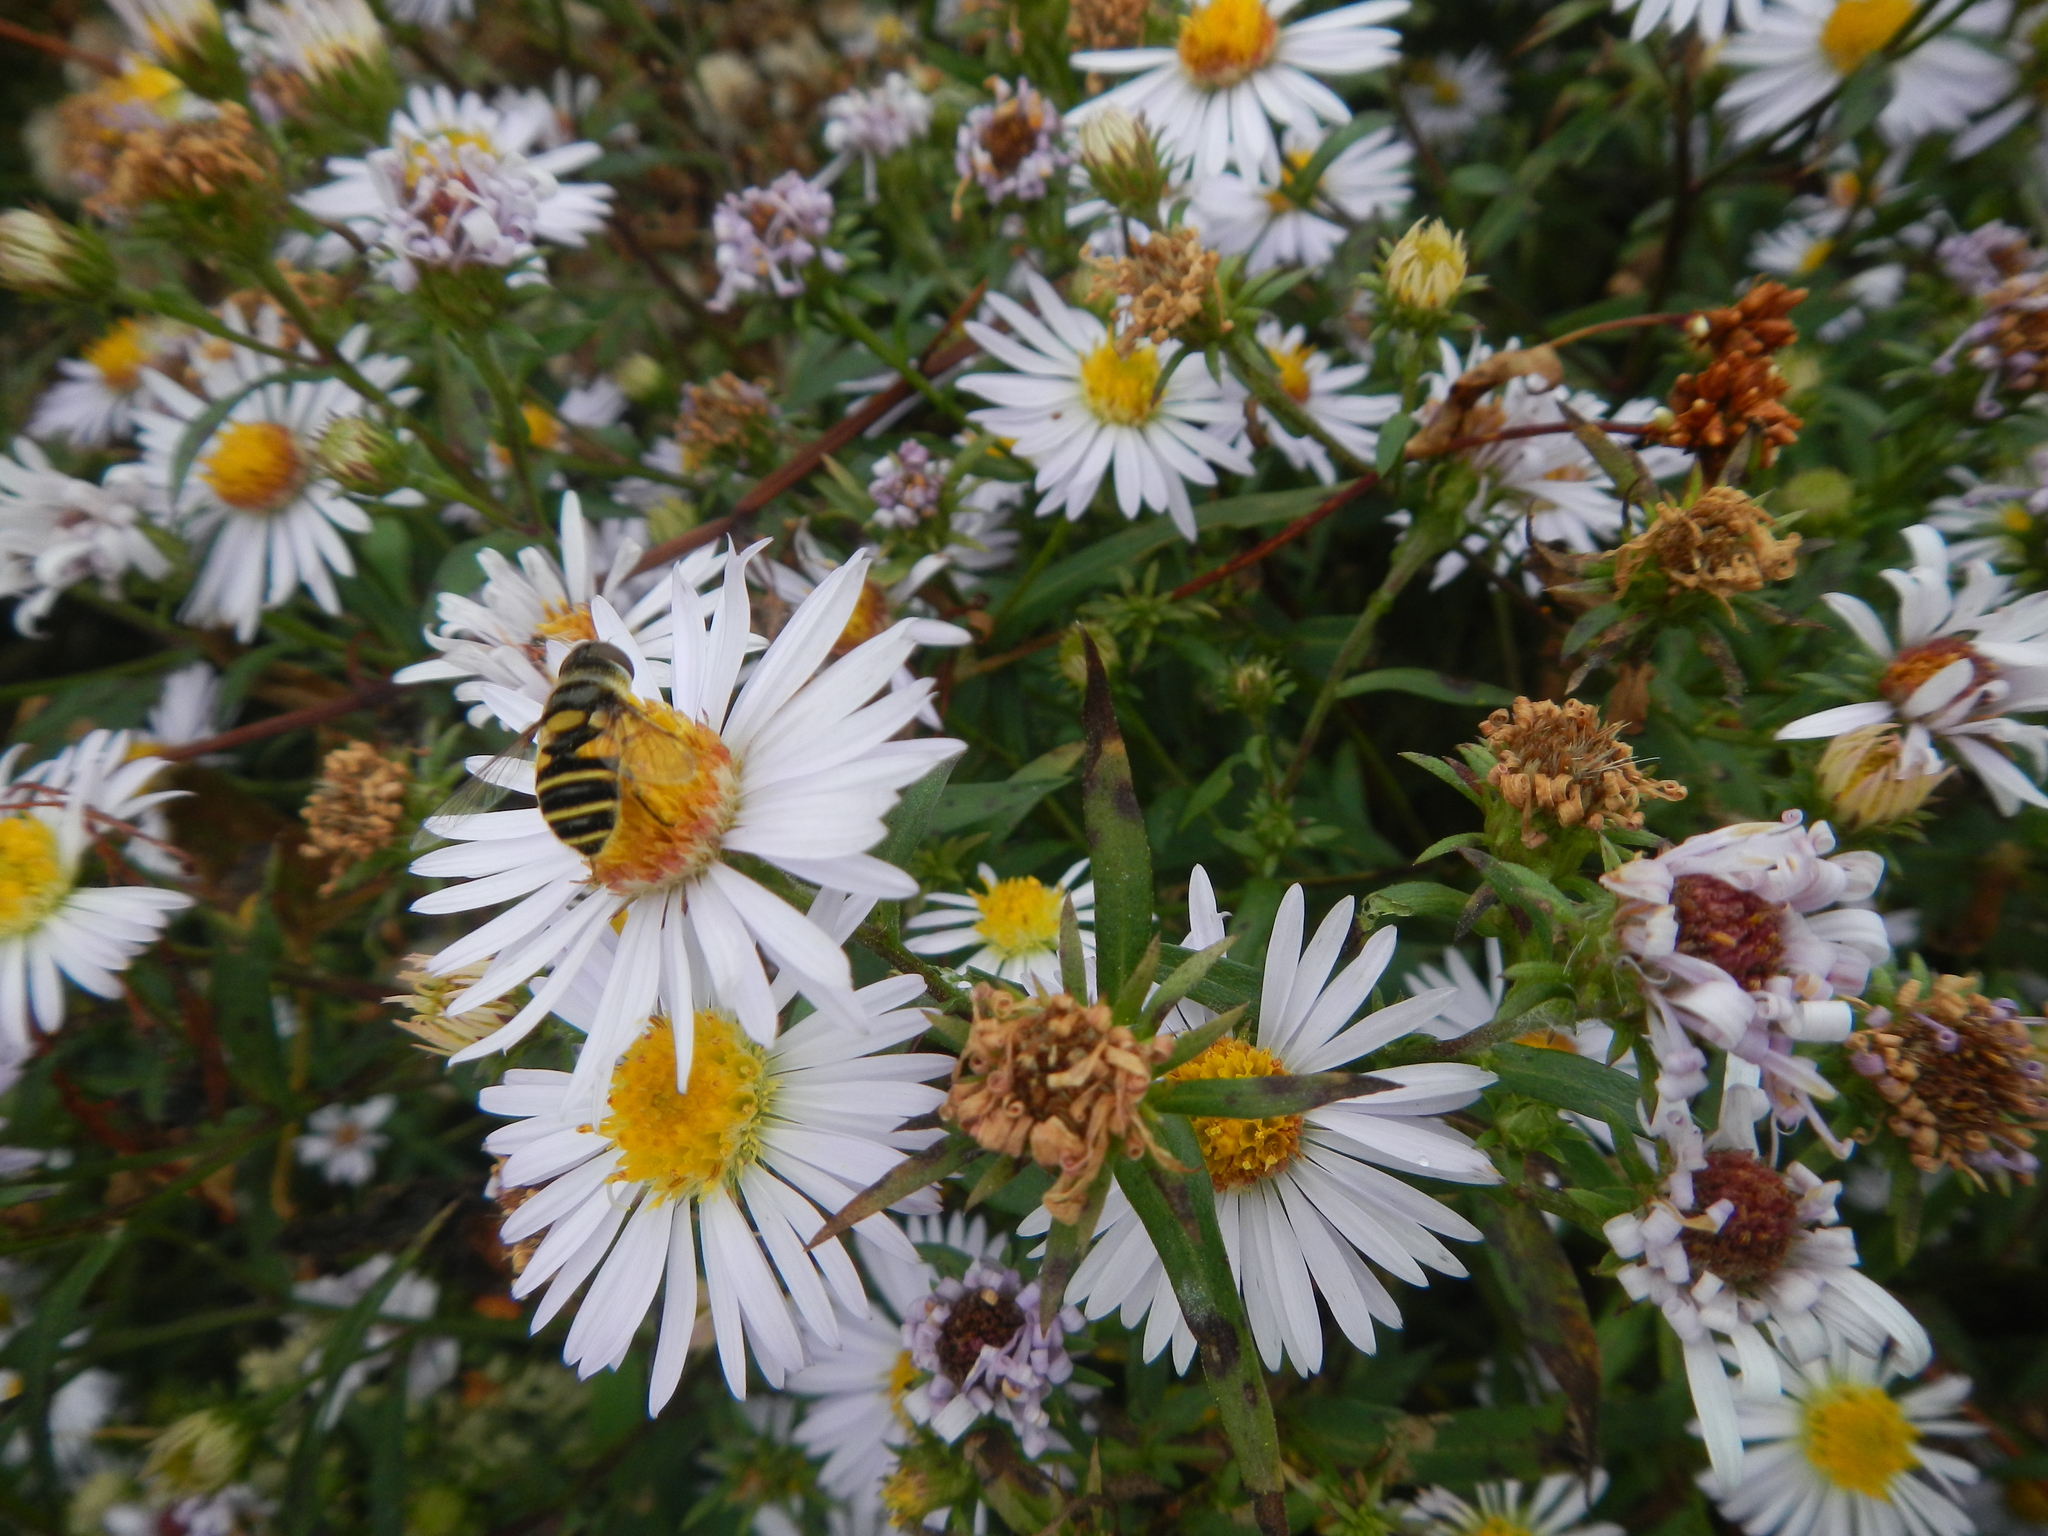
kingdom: Plantae
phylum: Tracheophyta
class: Magnoliopsida
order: Asterales
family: Asteraceae
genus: Symphyotrichum
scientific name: Symphyotrichum novi-belgii
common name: Michaelmas daisy
